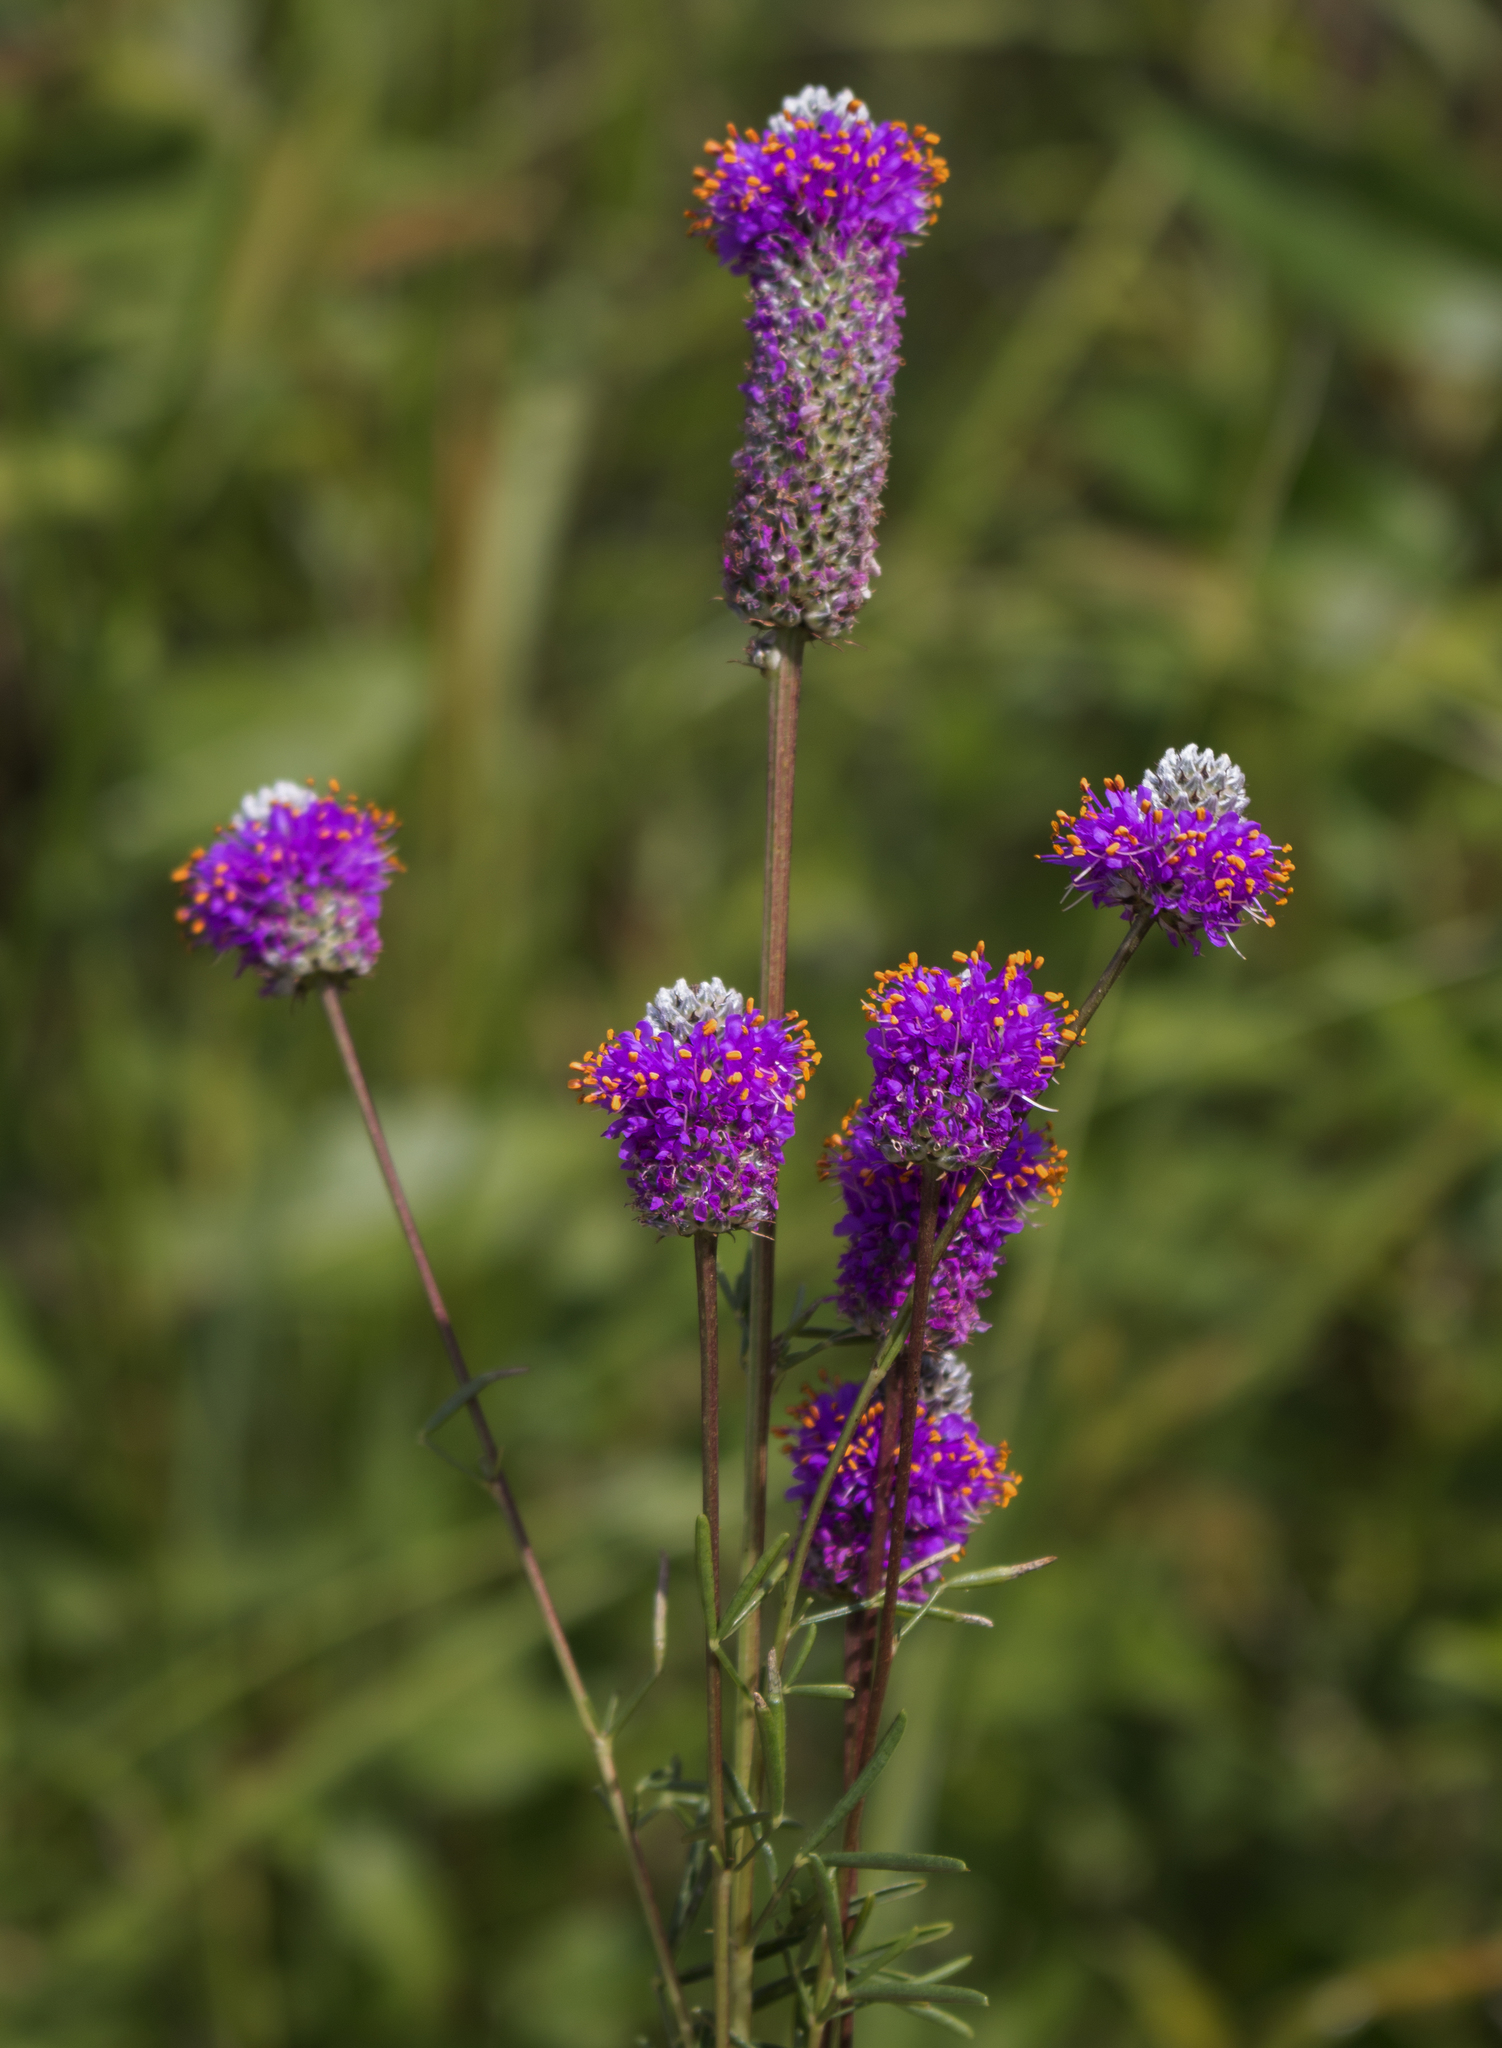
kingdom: Plantae
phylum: Tracheophyta
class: Magnoliopsida
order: Fabales
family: Fabaceae
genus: Dalea
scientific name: Dalea purpurea
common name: Purple prairie-clover
